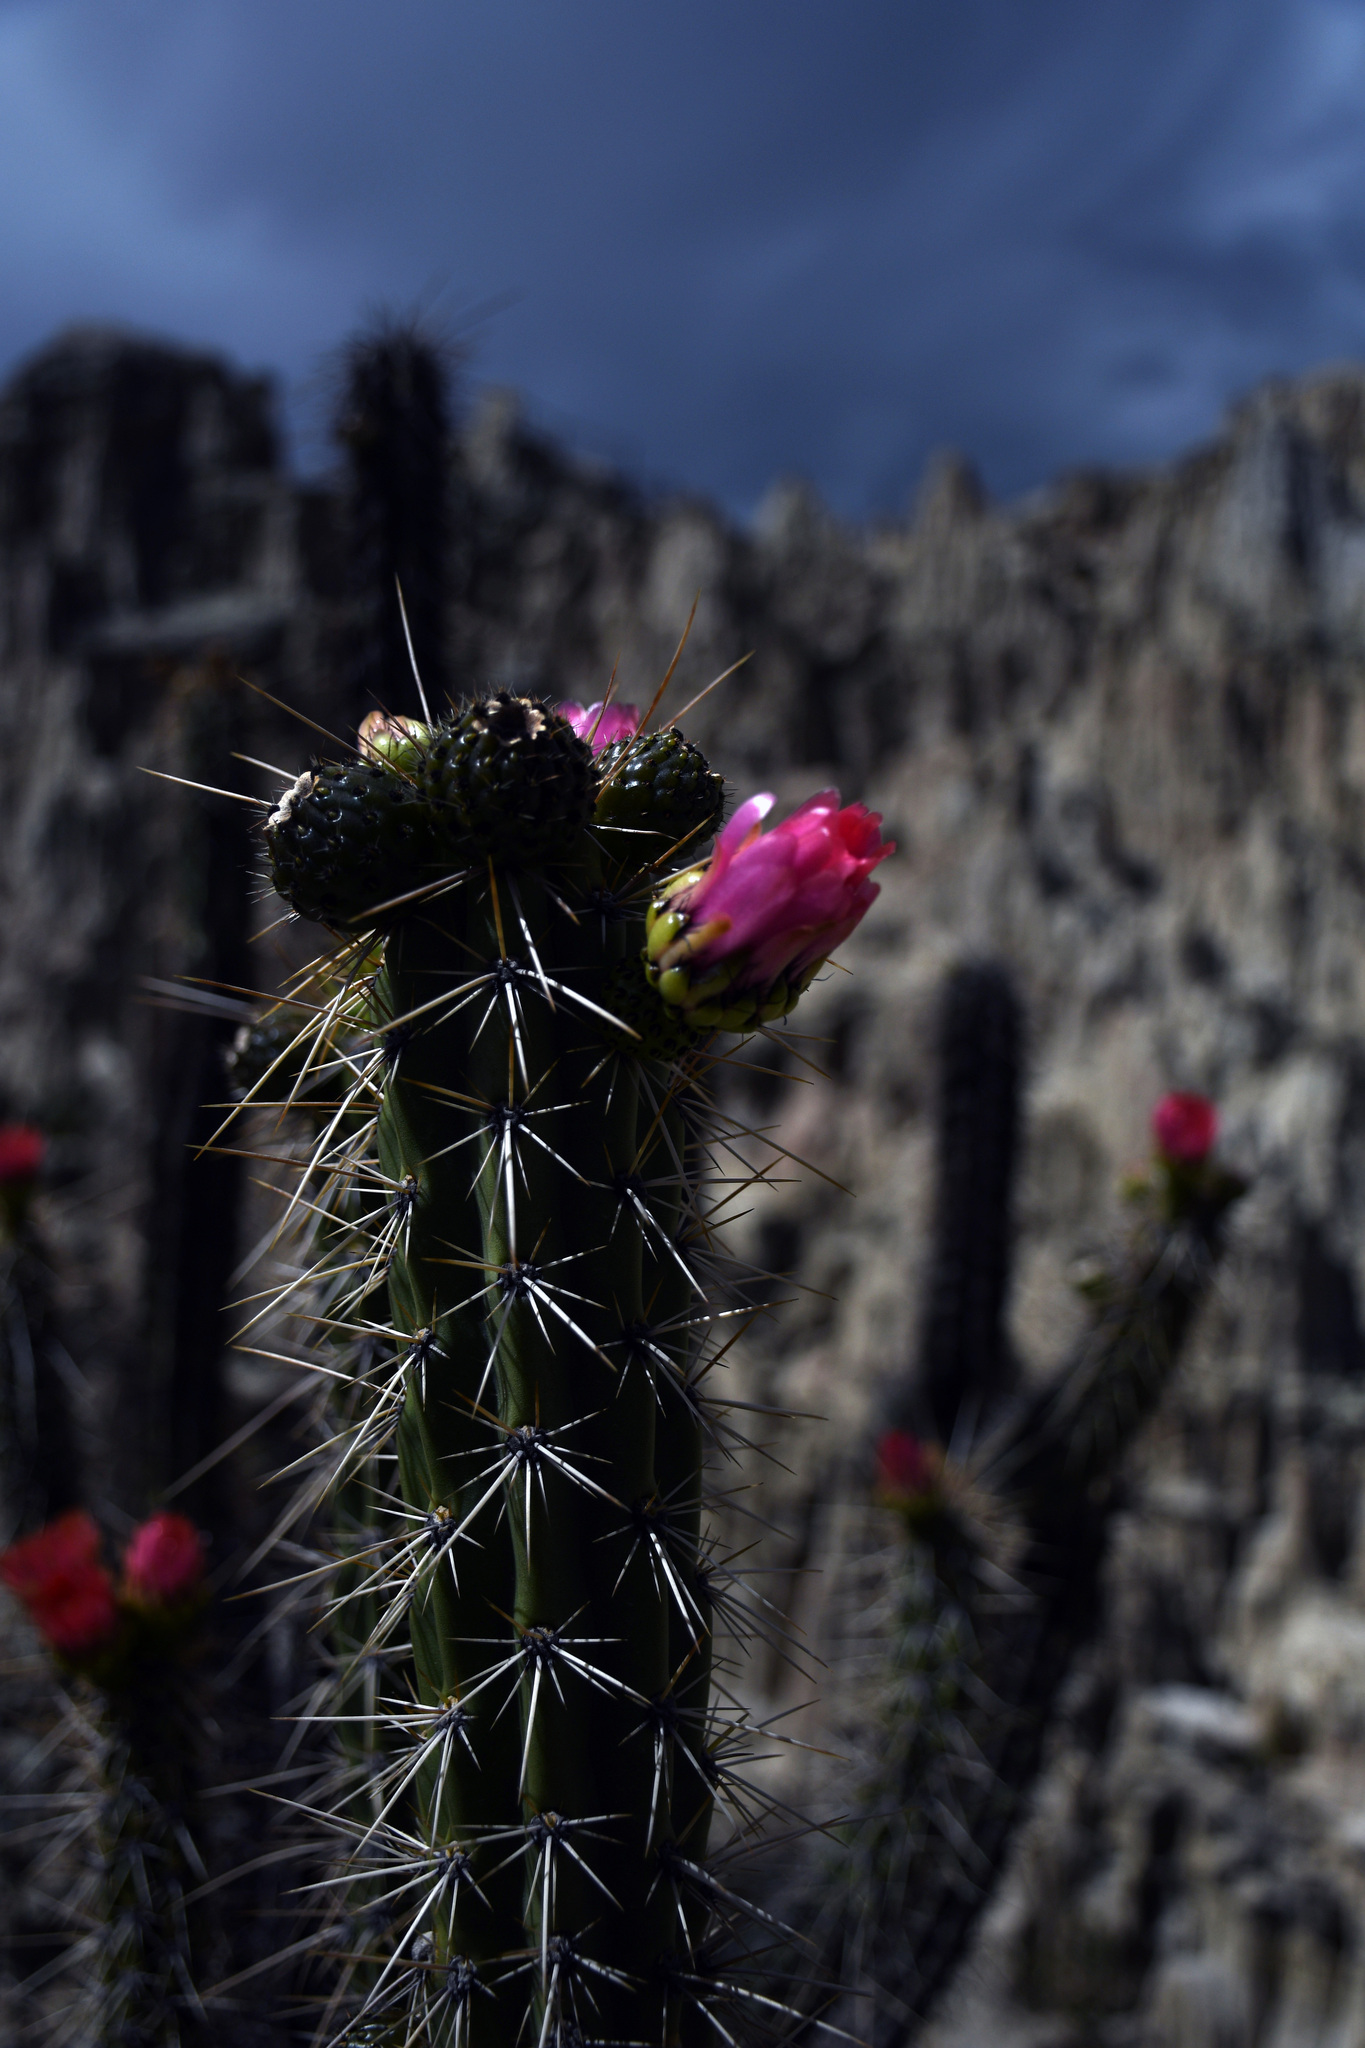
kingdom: Plantae
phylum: Tracheophyta
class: Magnoliopsida
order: Caryophyllales
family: Cactaceae
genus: Corryocactus
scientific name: Corryocactus melanotrichus
